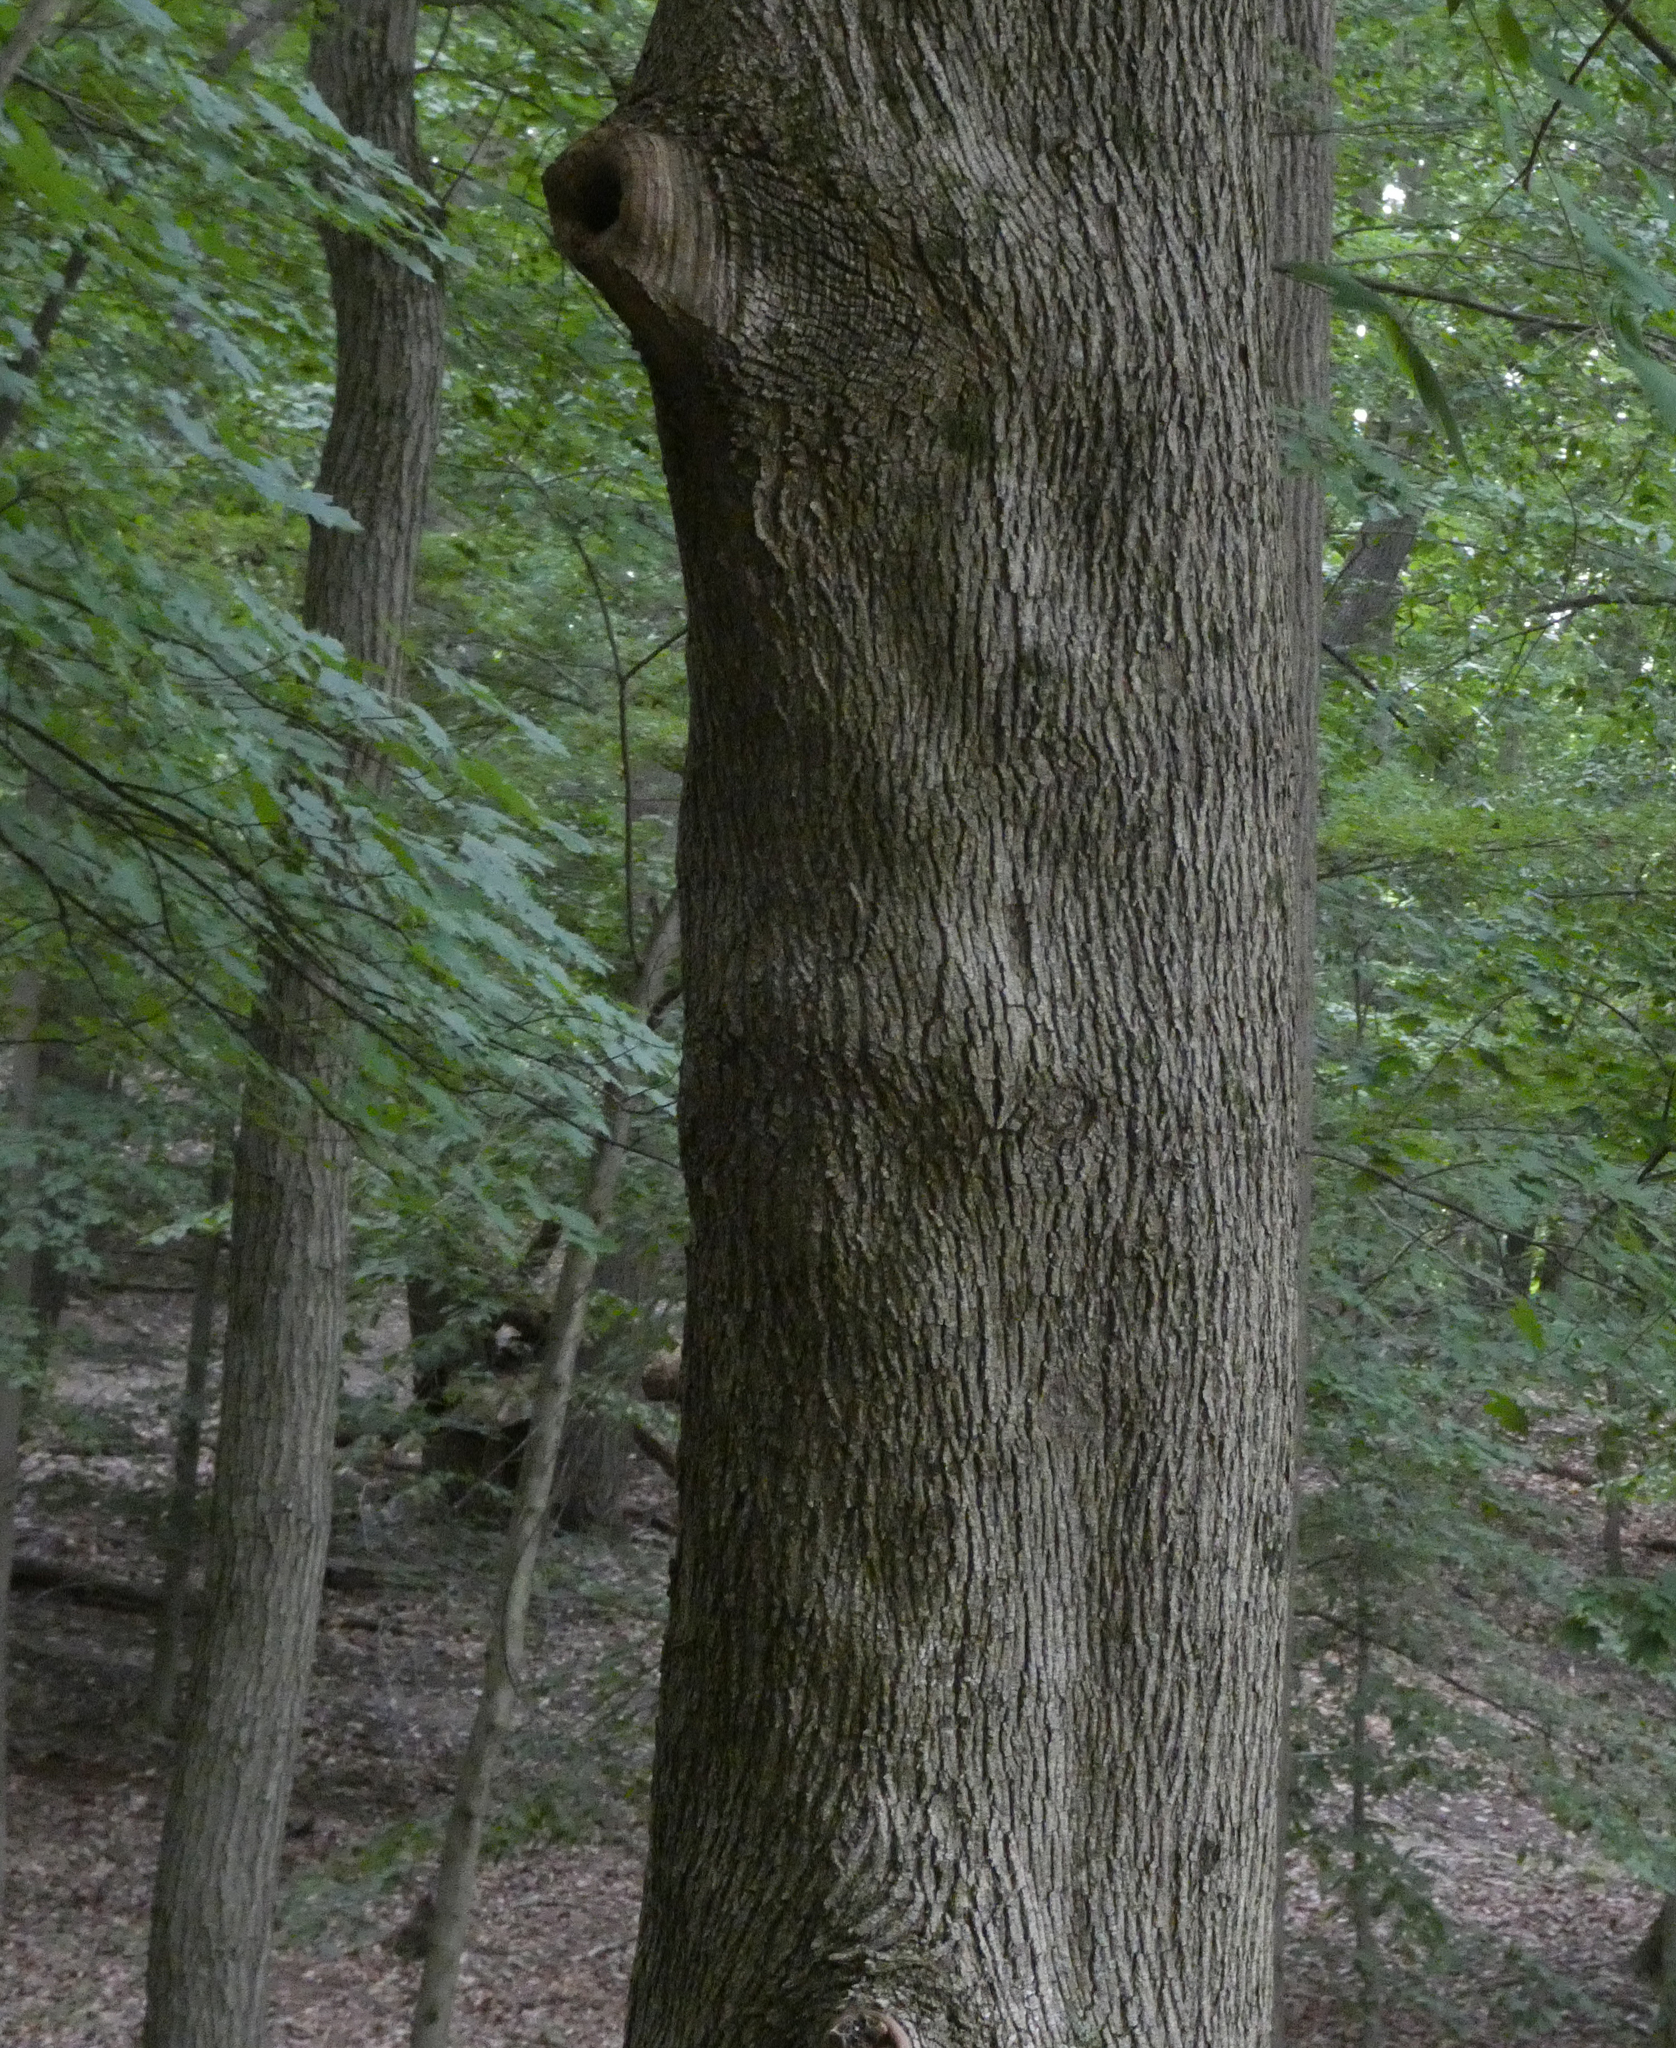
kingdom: Plantae
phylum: Tracheophyta
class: Magnoliopsida
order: Sapindales
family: Sapindaceae
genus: Acer
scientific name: Acer platanoides
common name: Norway maple
